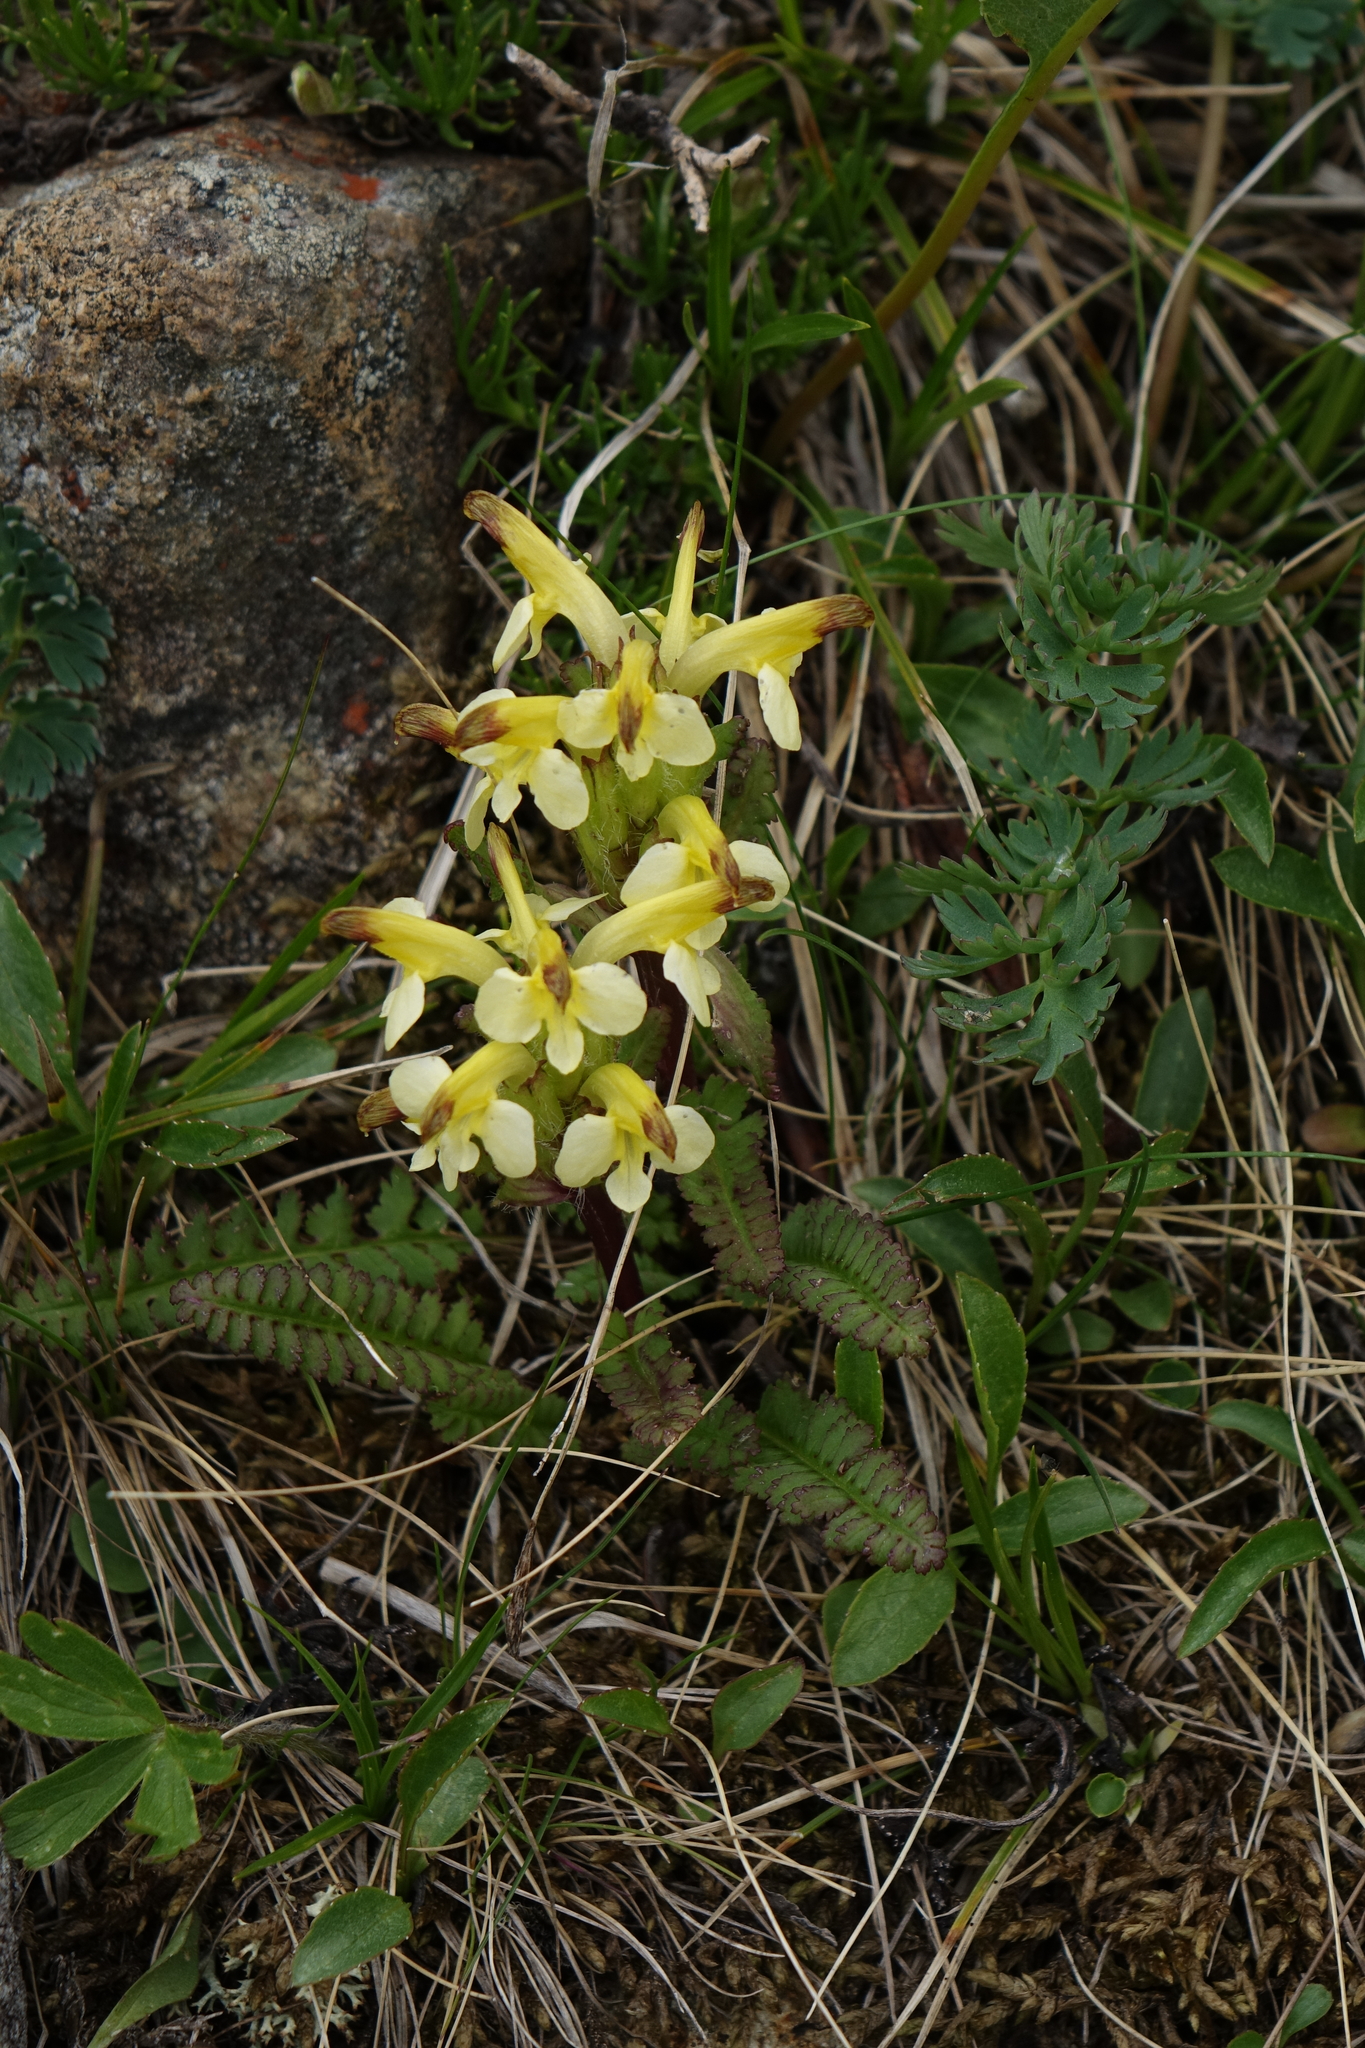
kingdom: Plantae
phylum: Tracheophyta
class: Magnoliopsida
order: Lamiales
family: Orobanchaceae
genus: Pedicularis
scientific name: Pedicularis oederi
